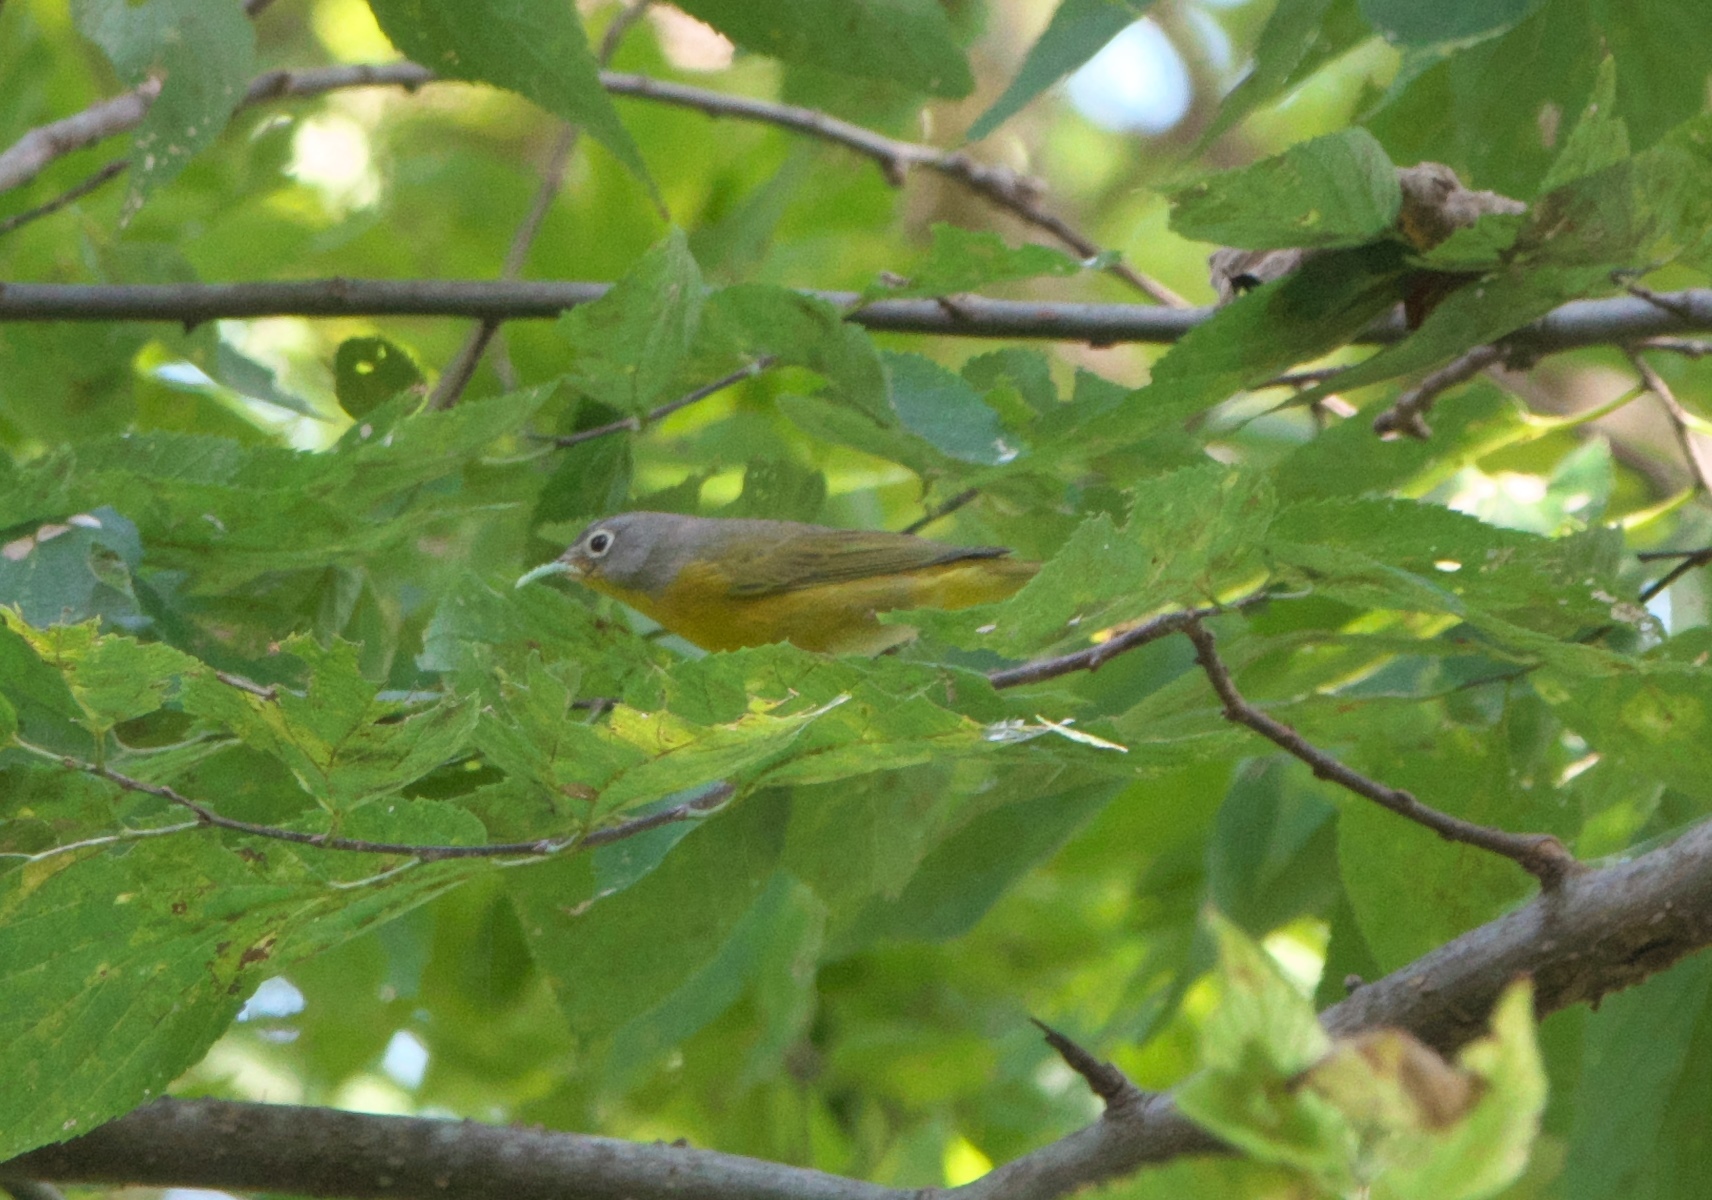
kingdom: Animalia
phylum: Chordata
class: Aves
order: Passeriformes
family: Parulidae
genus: Leiothlypis
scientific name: Leiothlypis ruficapilla
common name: Nashville warbler
